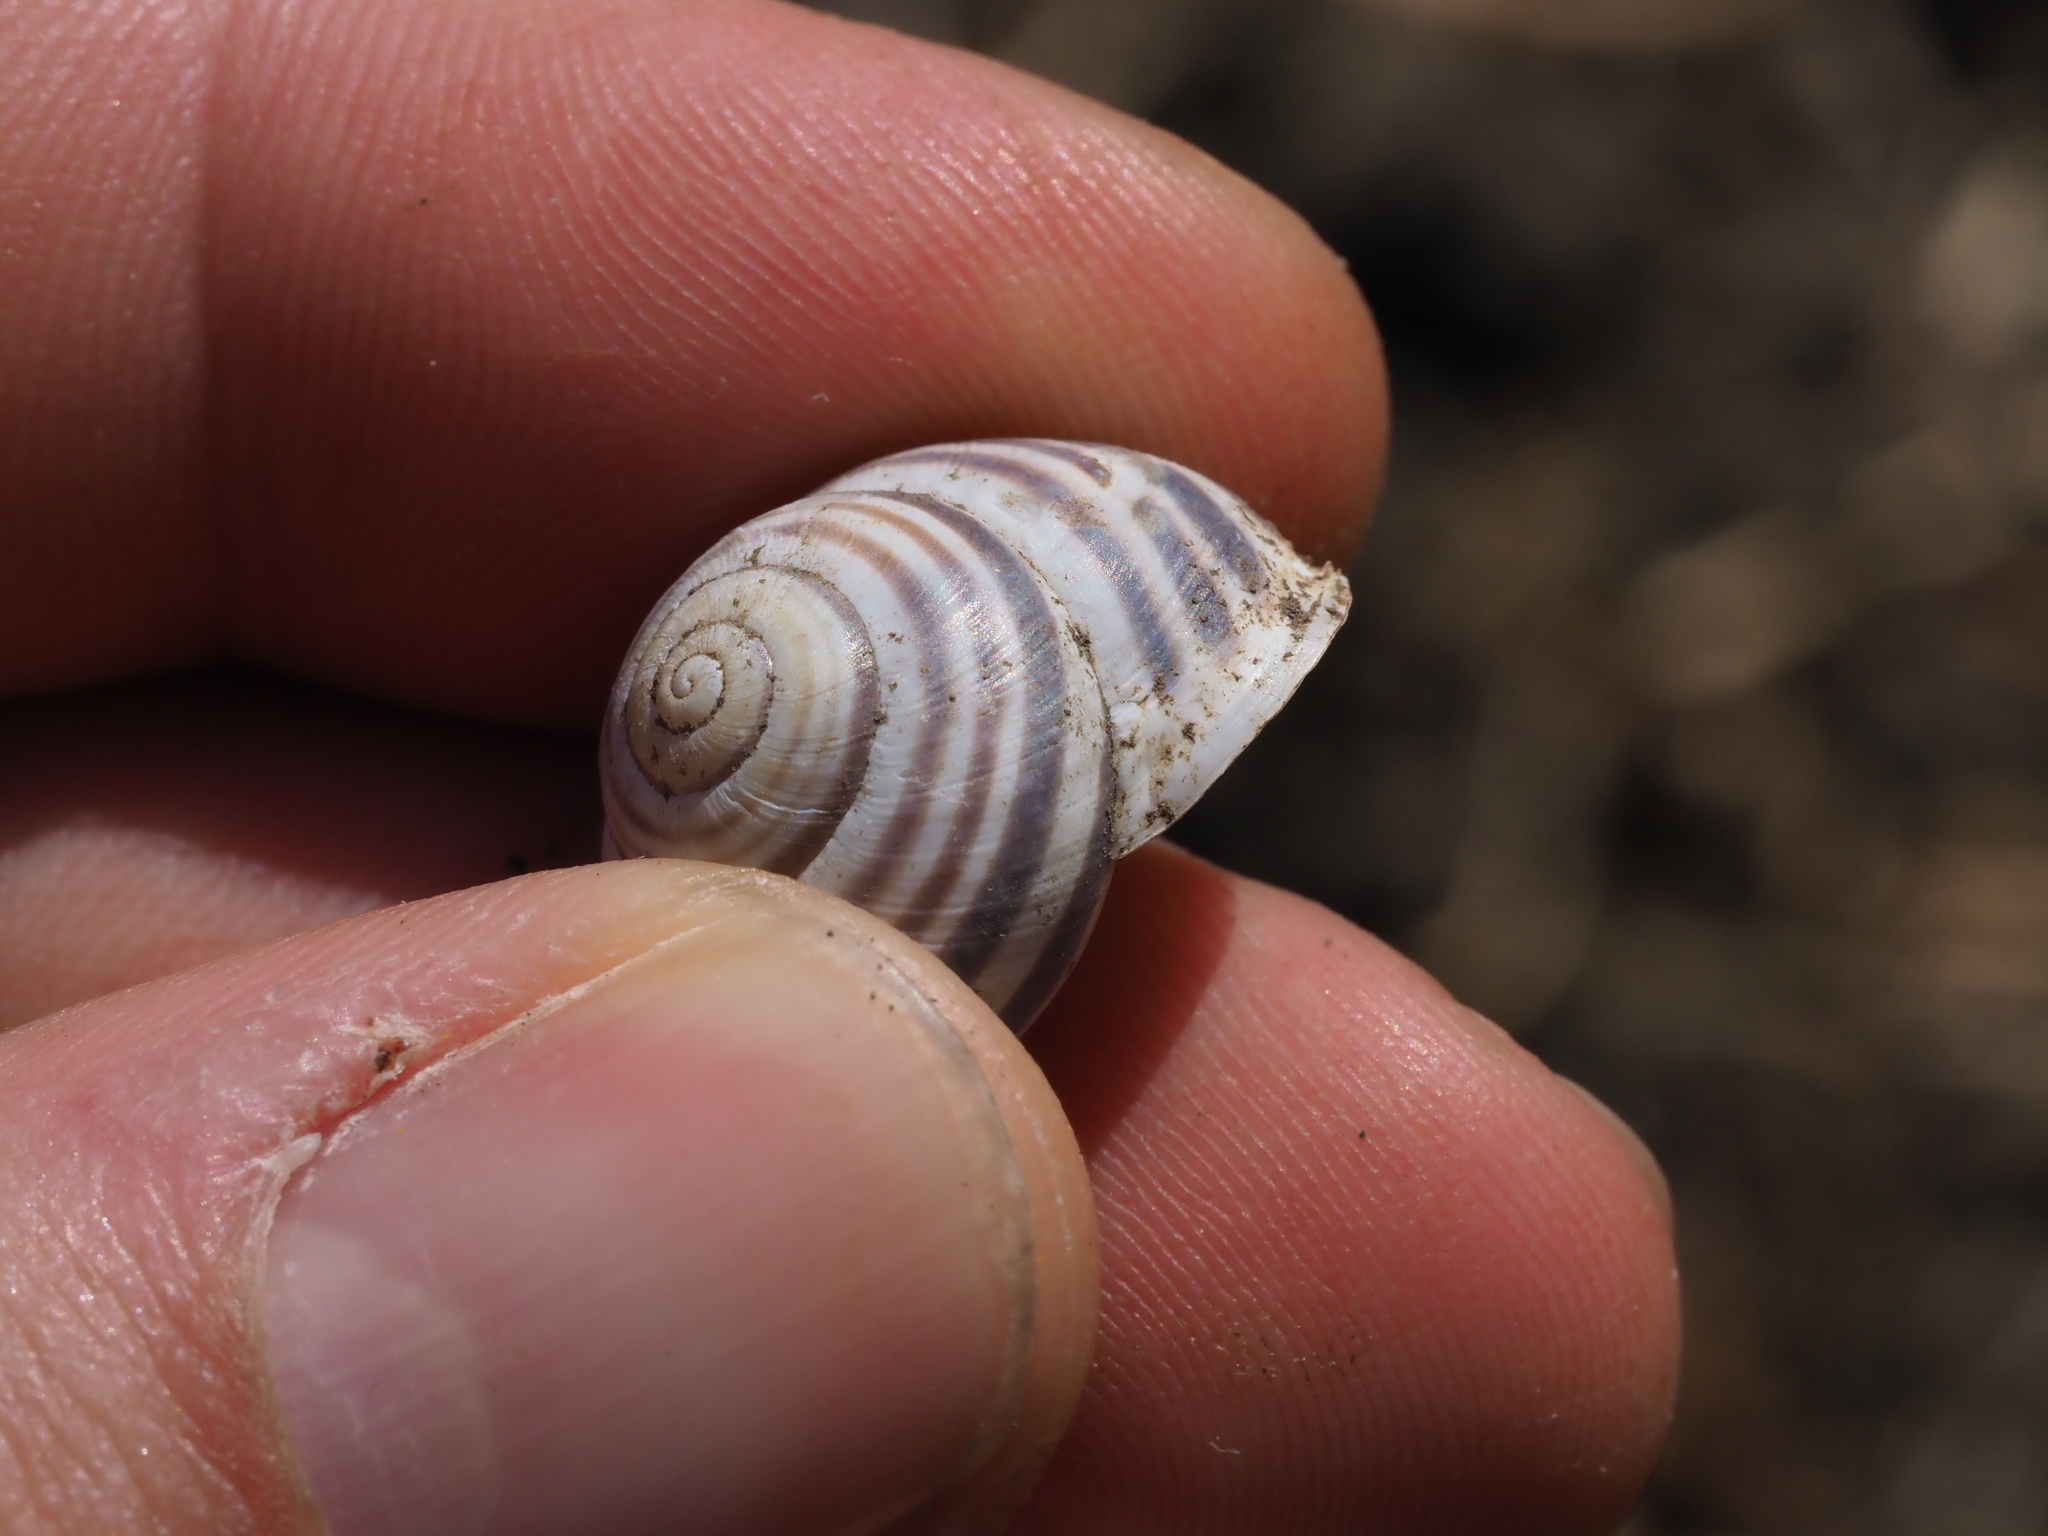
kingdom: Animalia
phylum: Mollusca
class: Gastropoda
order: Stylommatophora
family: Helicidae
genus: Caucasotachea
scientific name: Caucasotachea vindobonensis
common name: European helicid land snail
